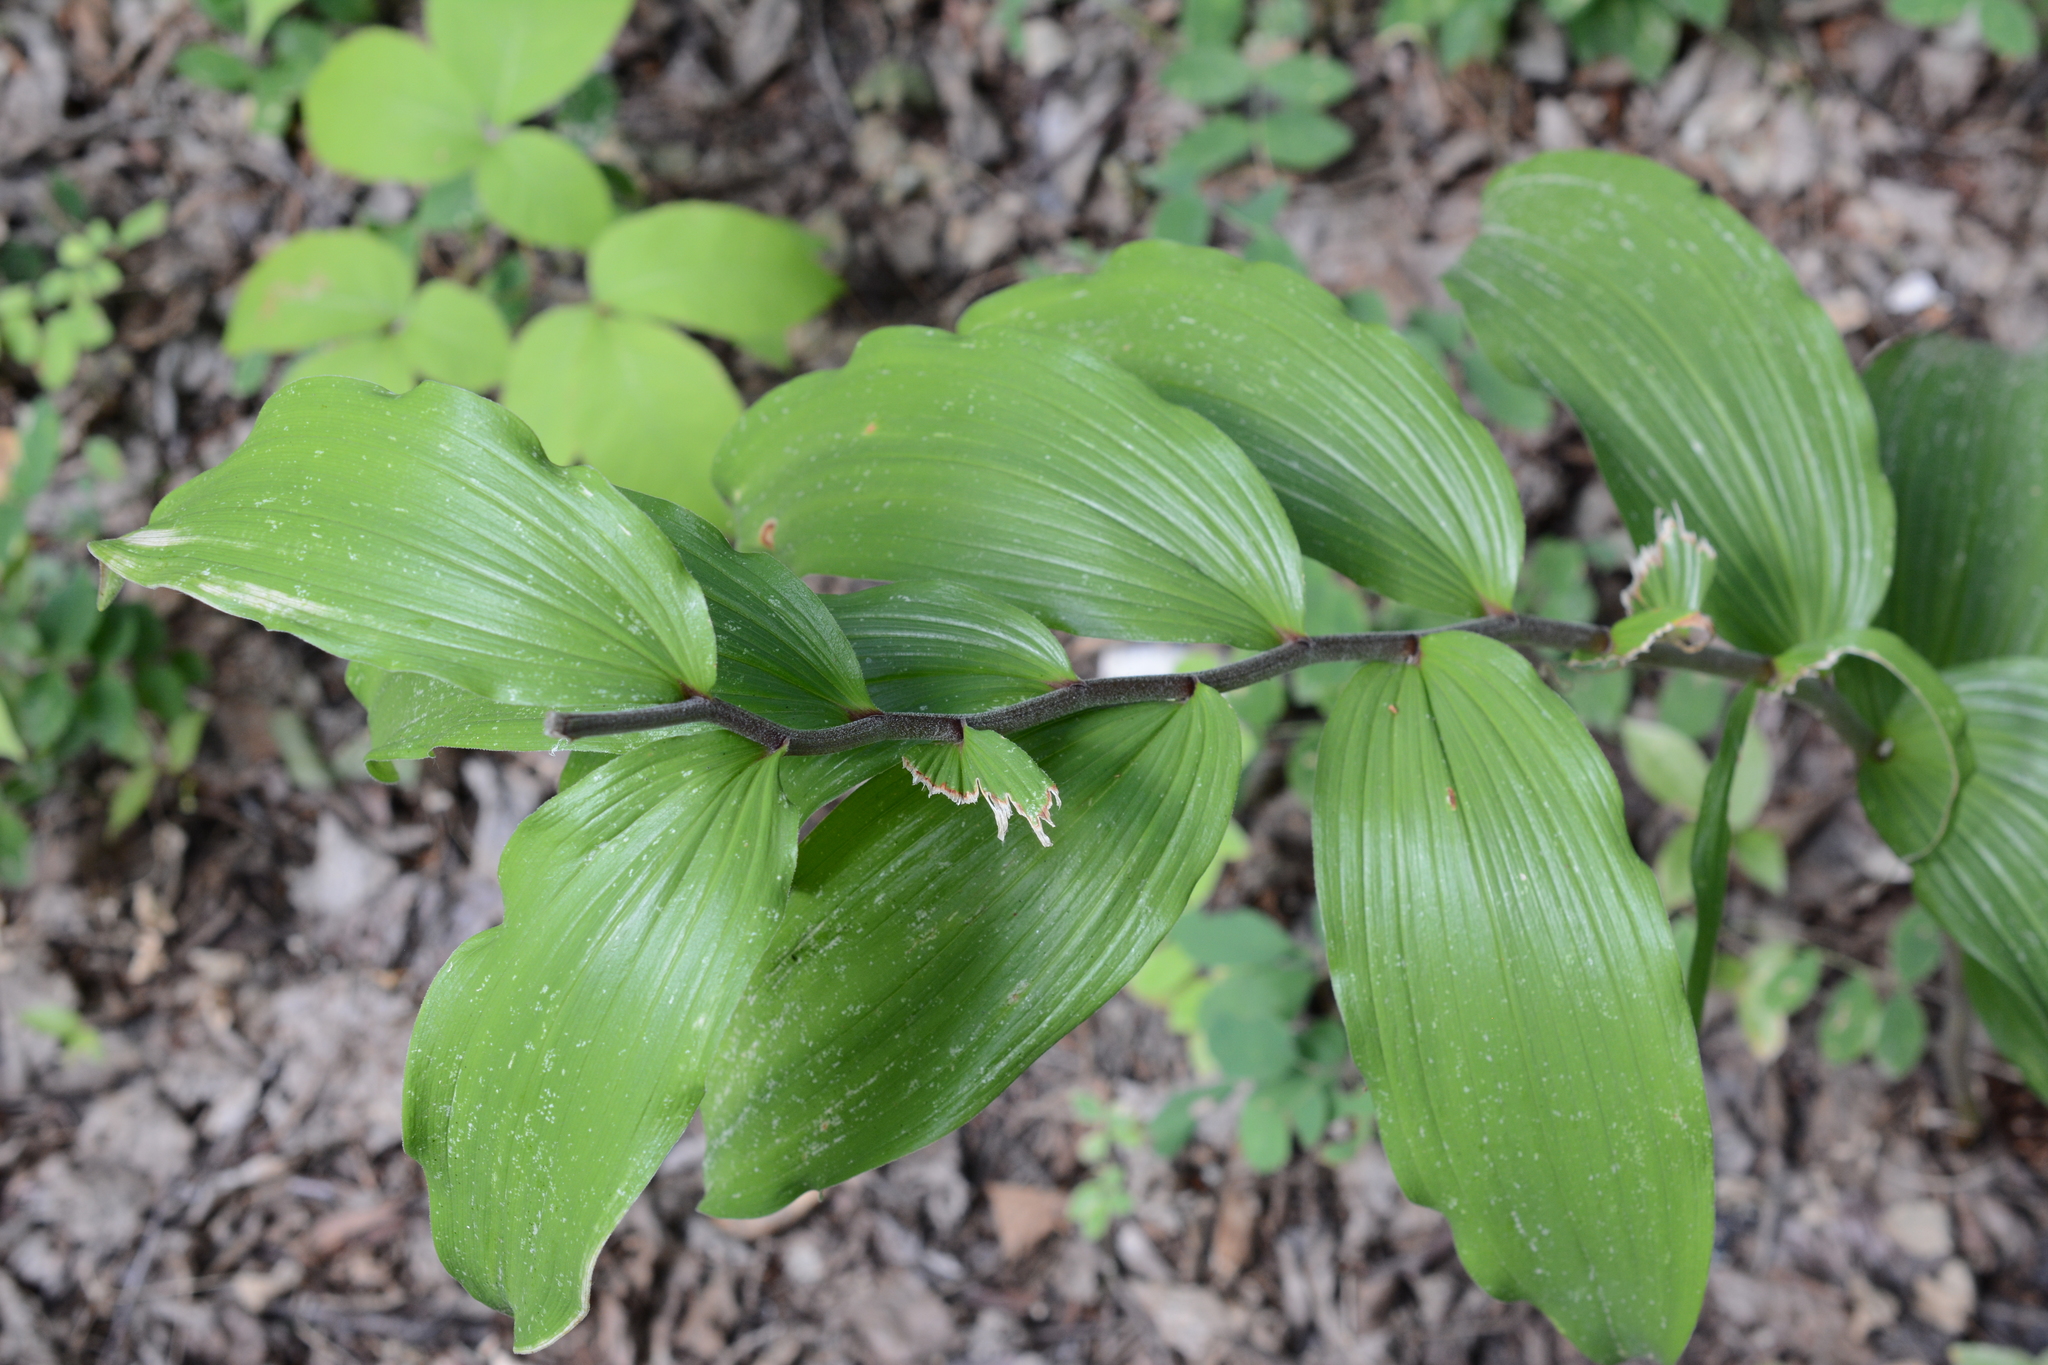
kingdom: Plantae
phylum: Tracheophyta
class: Liliopsida
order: Asparagales
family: Asparagaceae
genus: Maianthemum
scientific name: Maianthemum racemosum
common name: False spikenard
